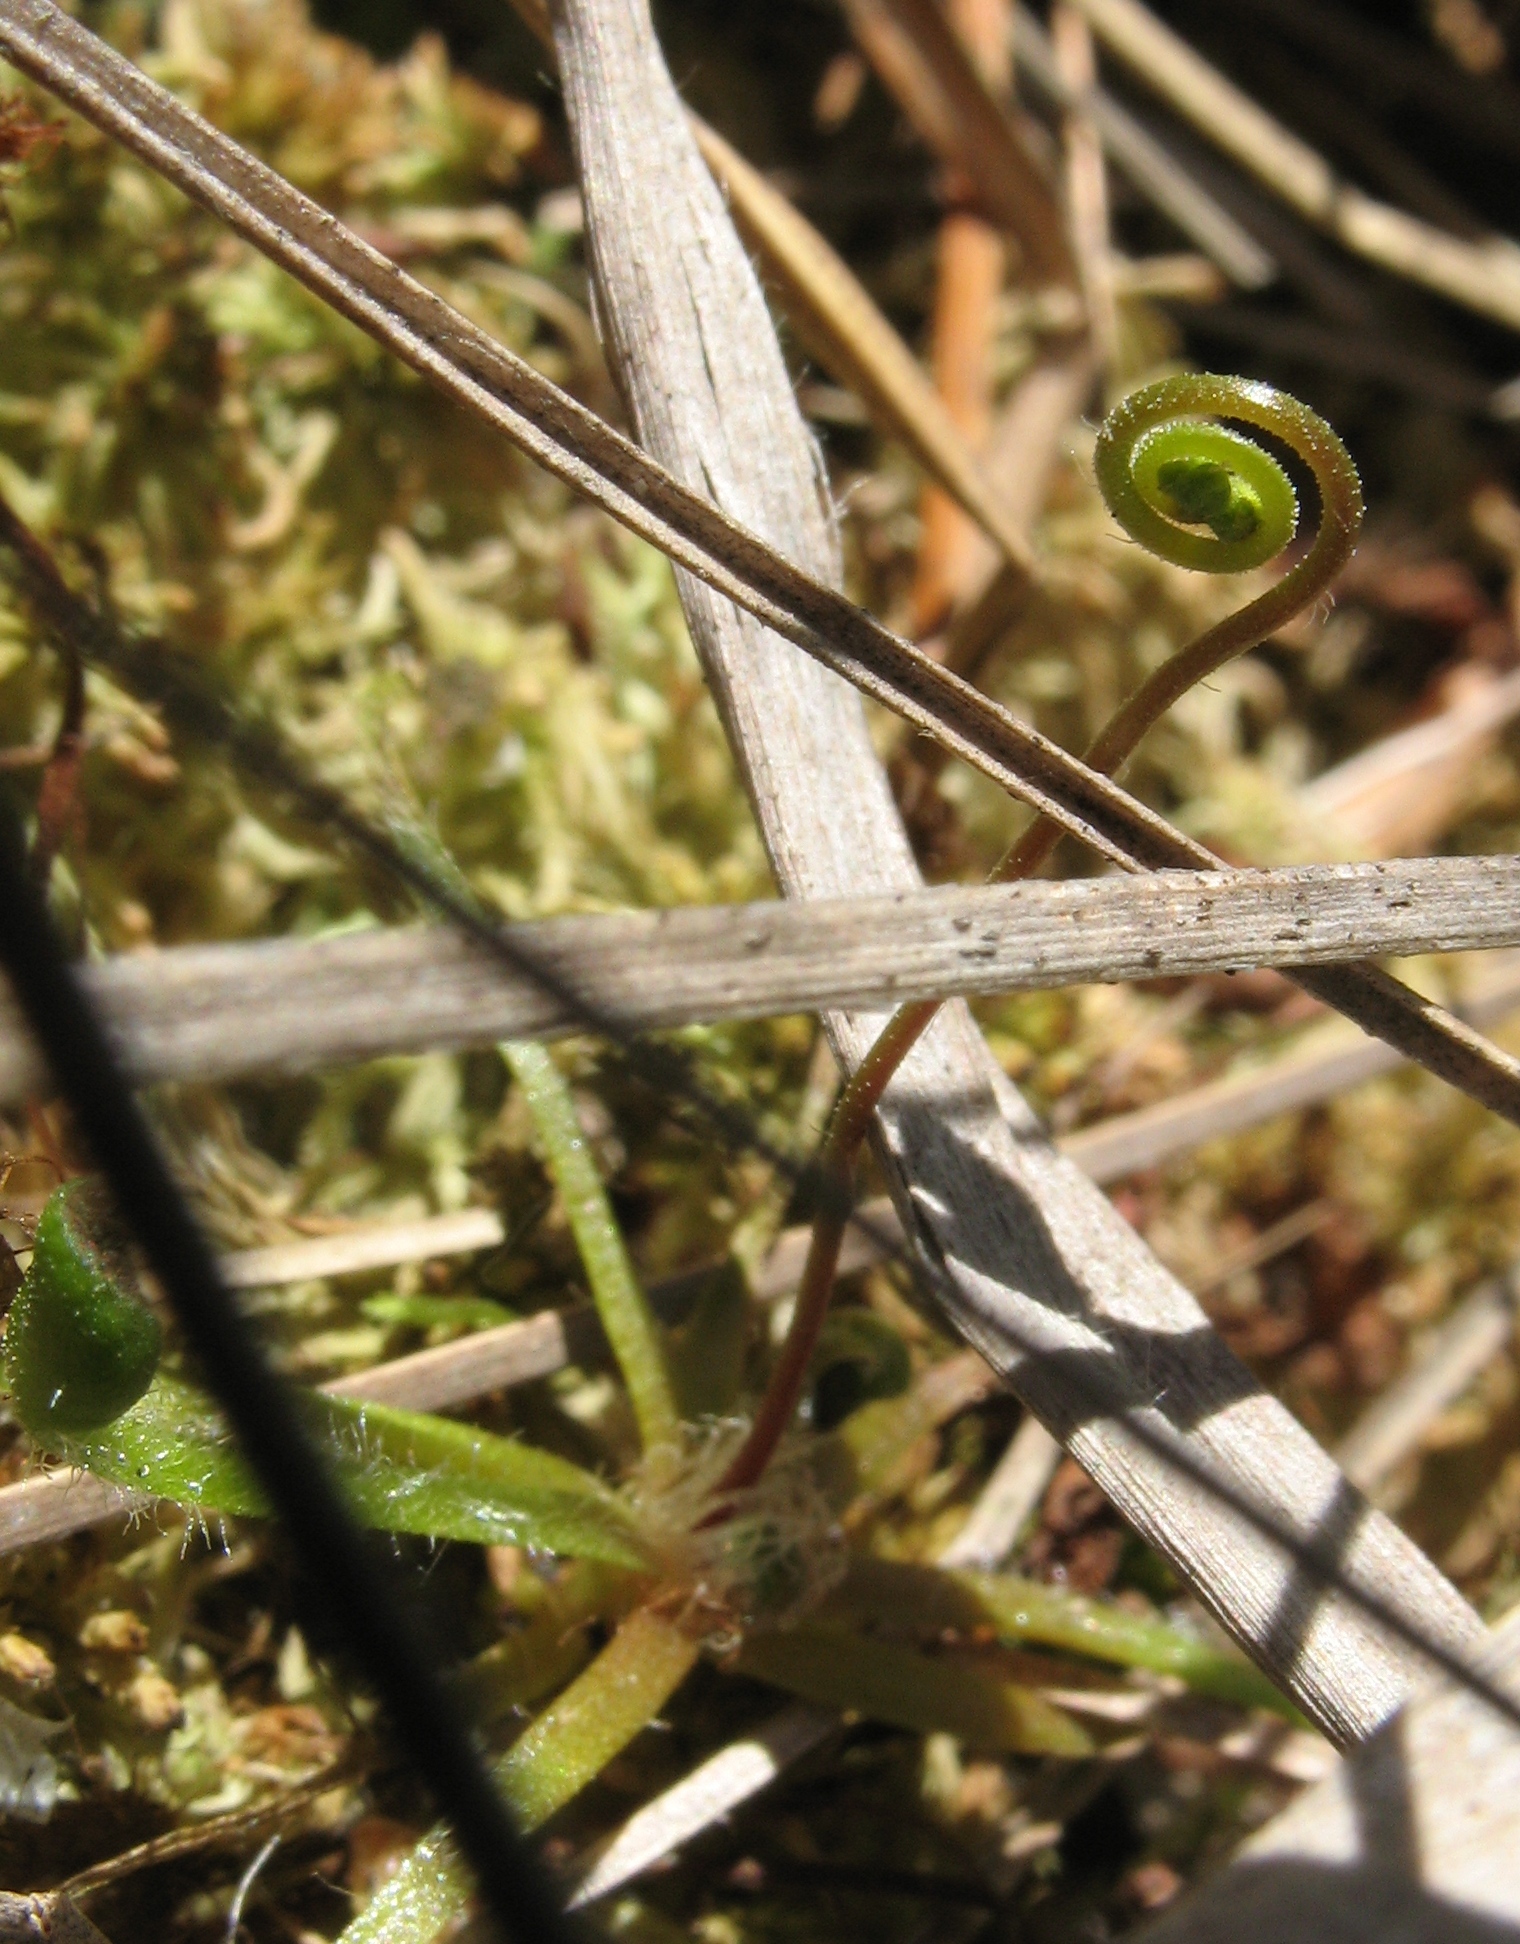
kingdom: Plantae
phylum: Tracheophyta
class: Magnoliopsida
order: Caryophyllales
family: Droseraceae
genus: Drosera
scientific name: Drosera rotundifolia
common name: Round-leaved sundew
